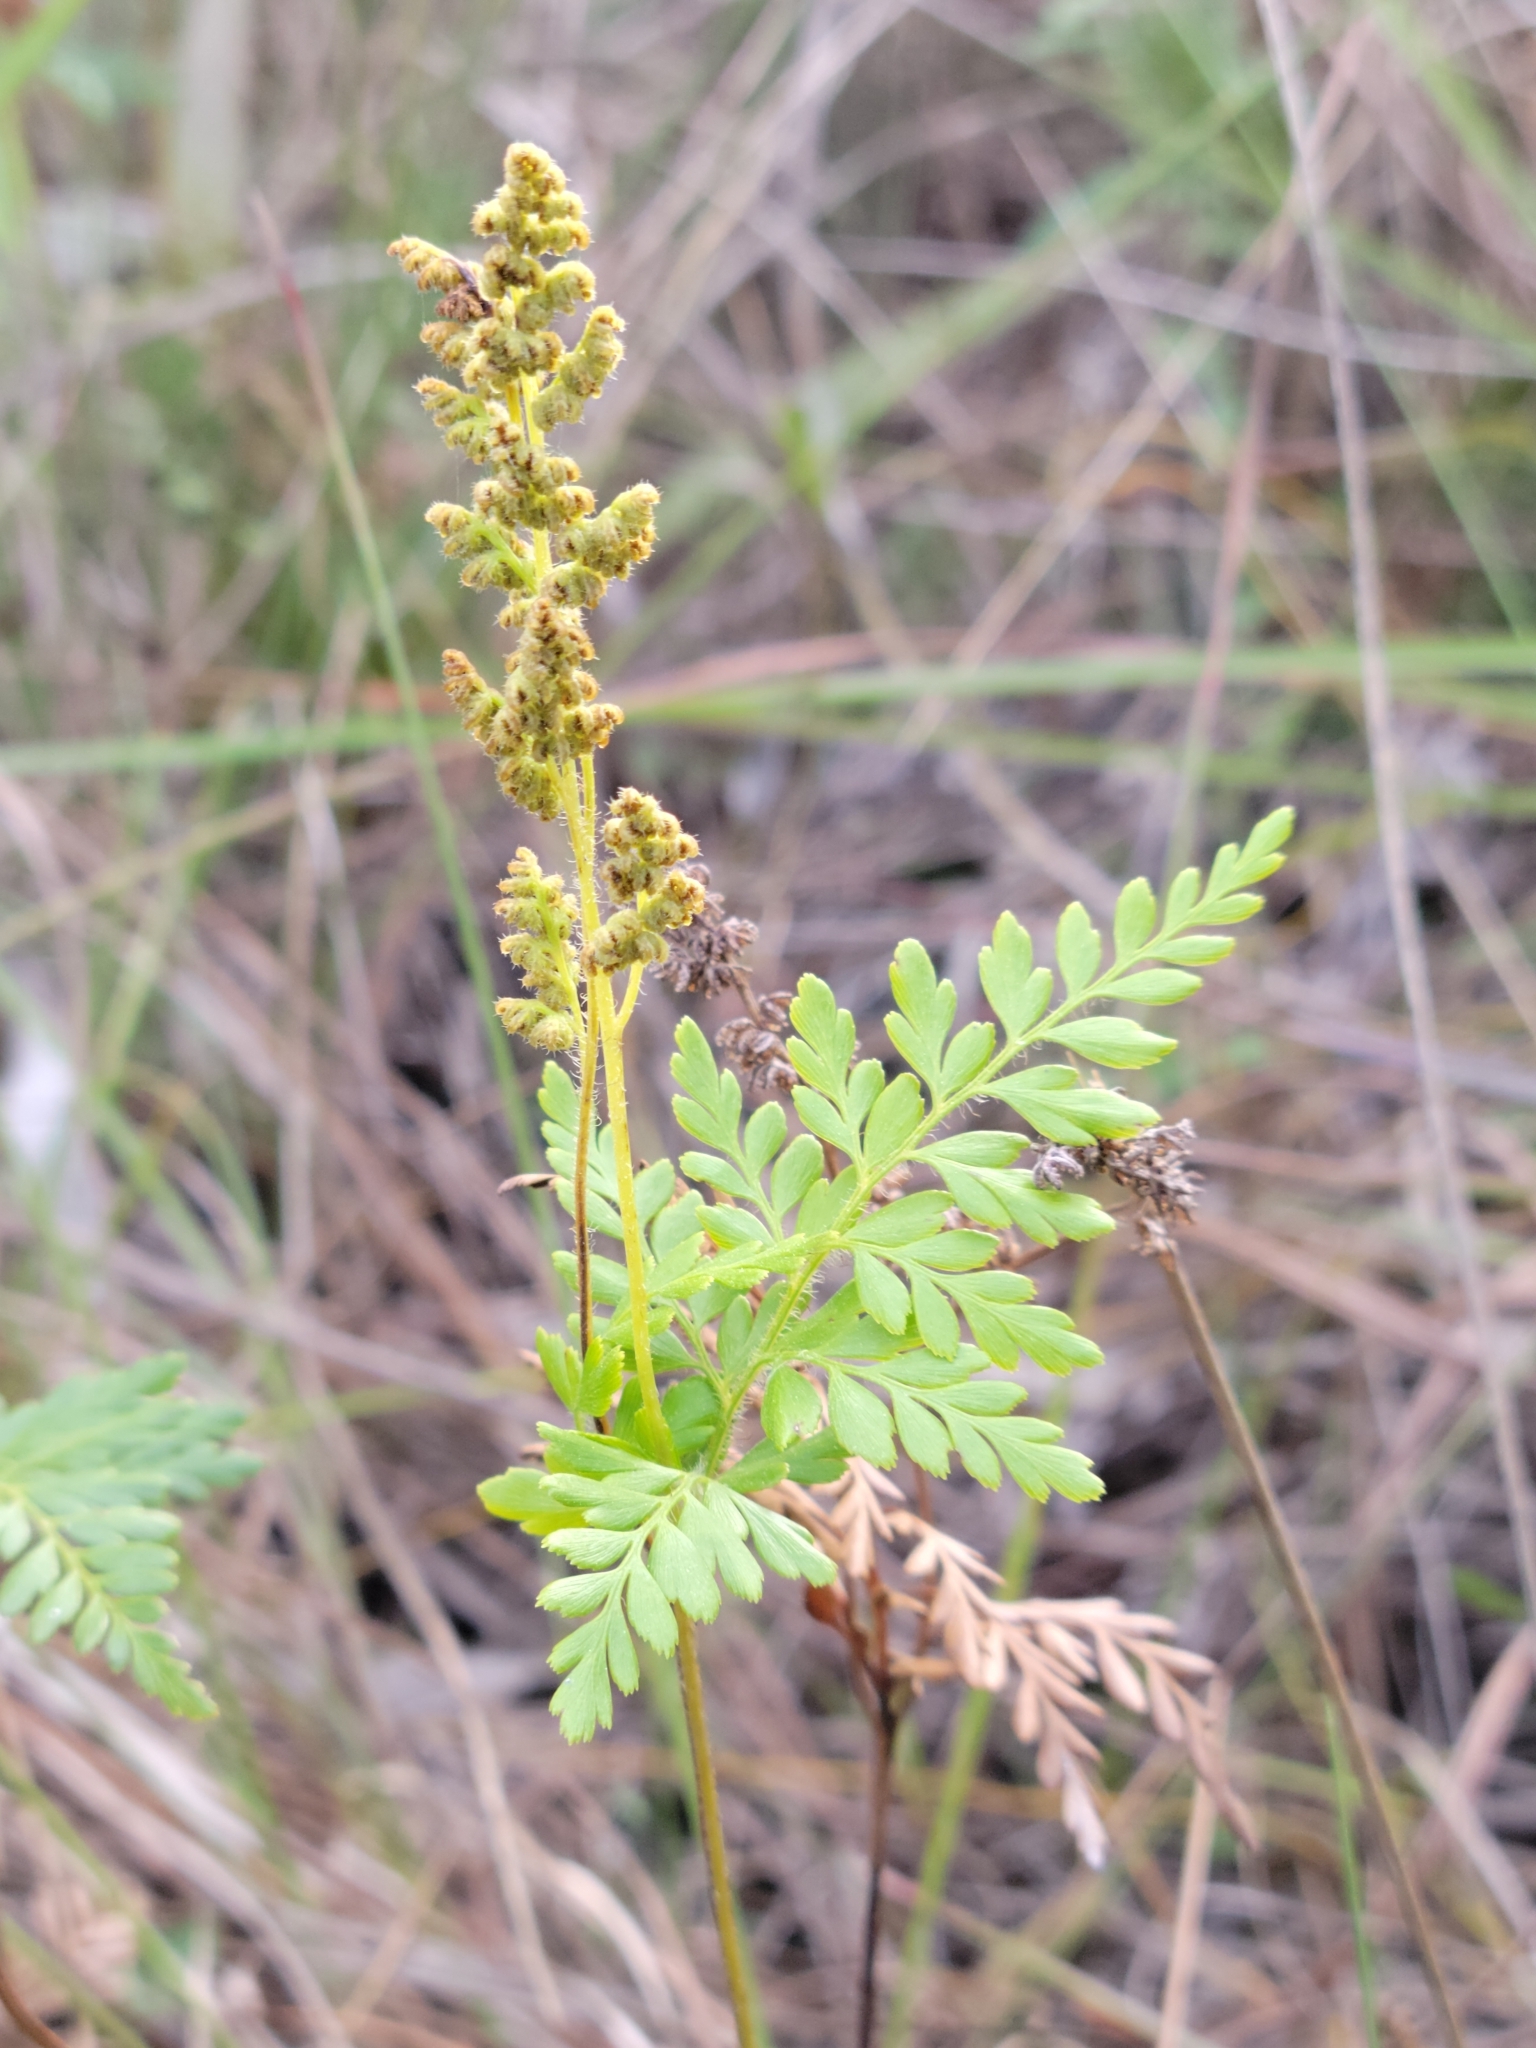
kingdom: Plantae
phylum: Tracheophyta
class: Polypodiopsida
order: Schizaeales
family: Anemiaceae
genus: Anemia
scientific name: Anemia adiantifolia
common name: Pine fern
